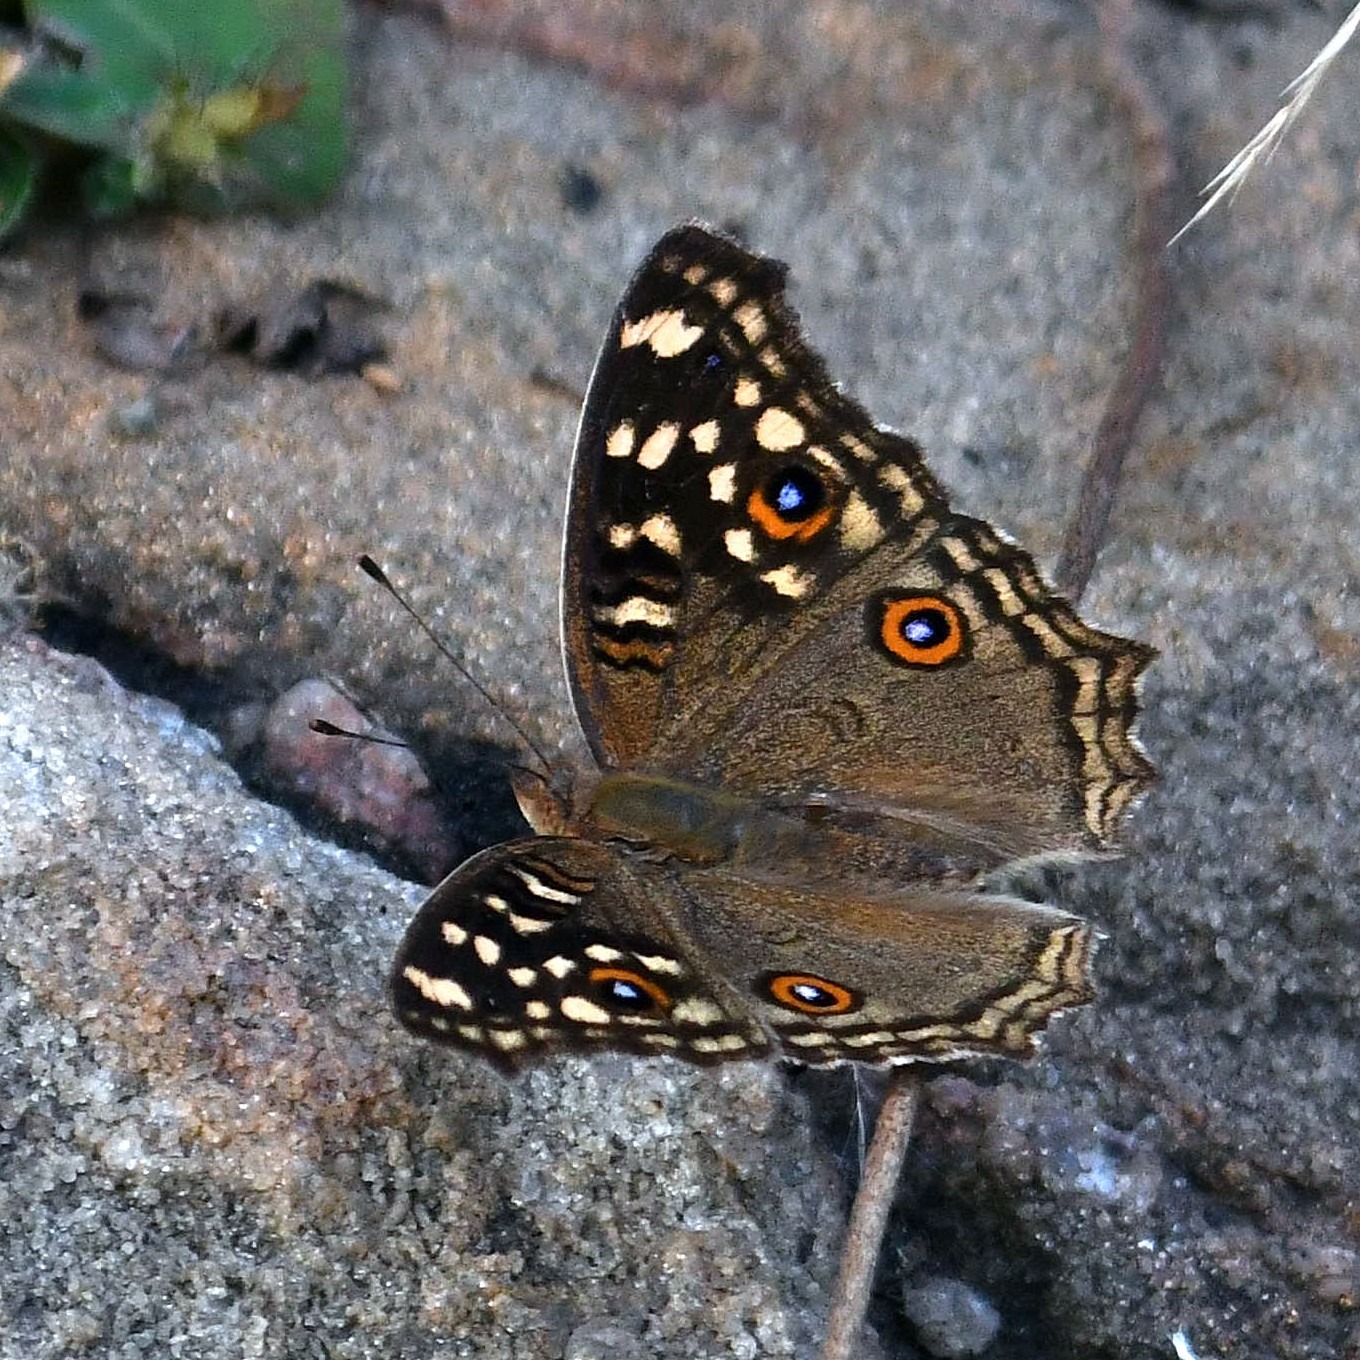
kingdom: Animalia
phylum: Arthropoda
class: Insecta
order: Lepidoptera
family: Nymphalidae
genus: Junonia
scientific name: Junonia lemonias
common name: Lemon pansy
